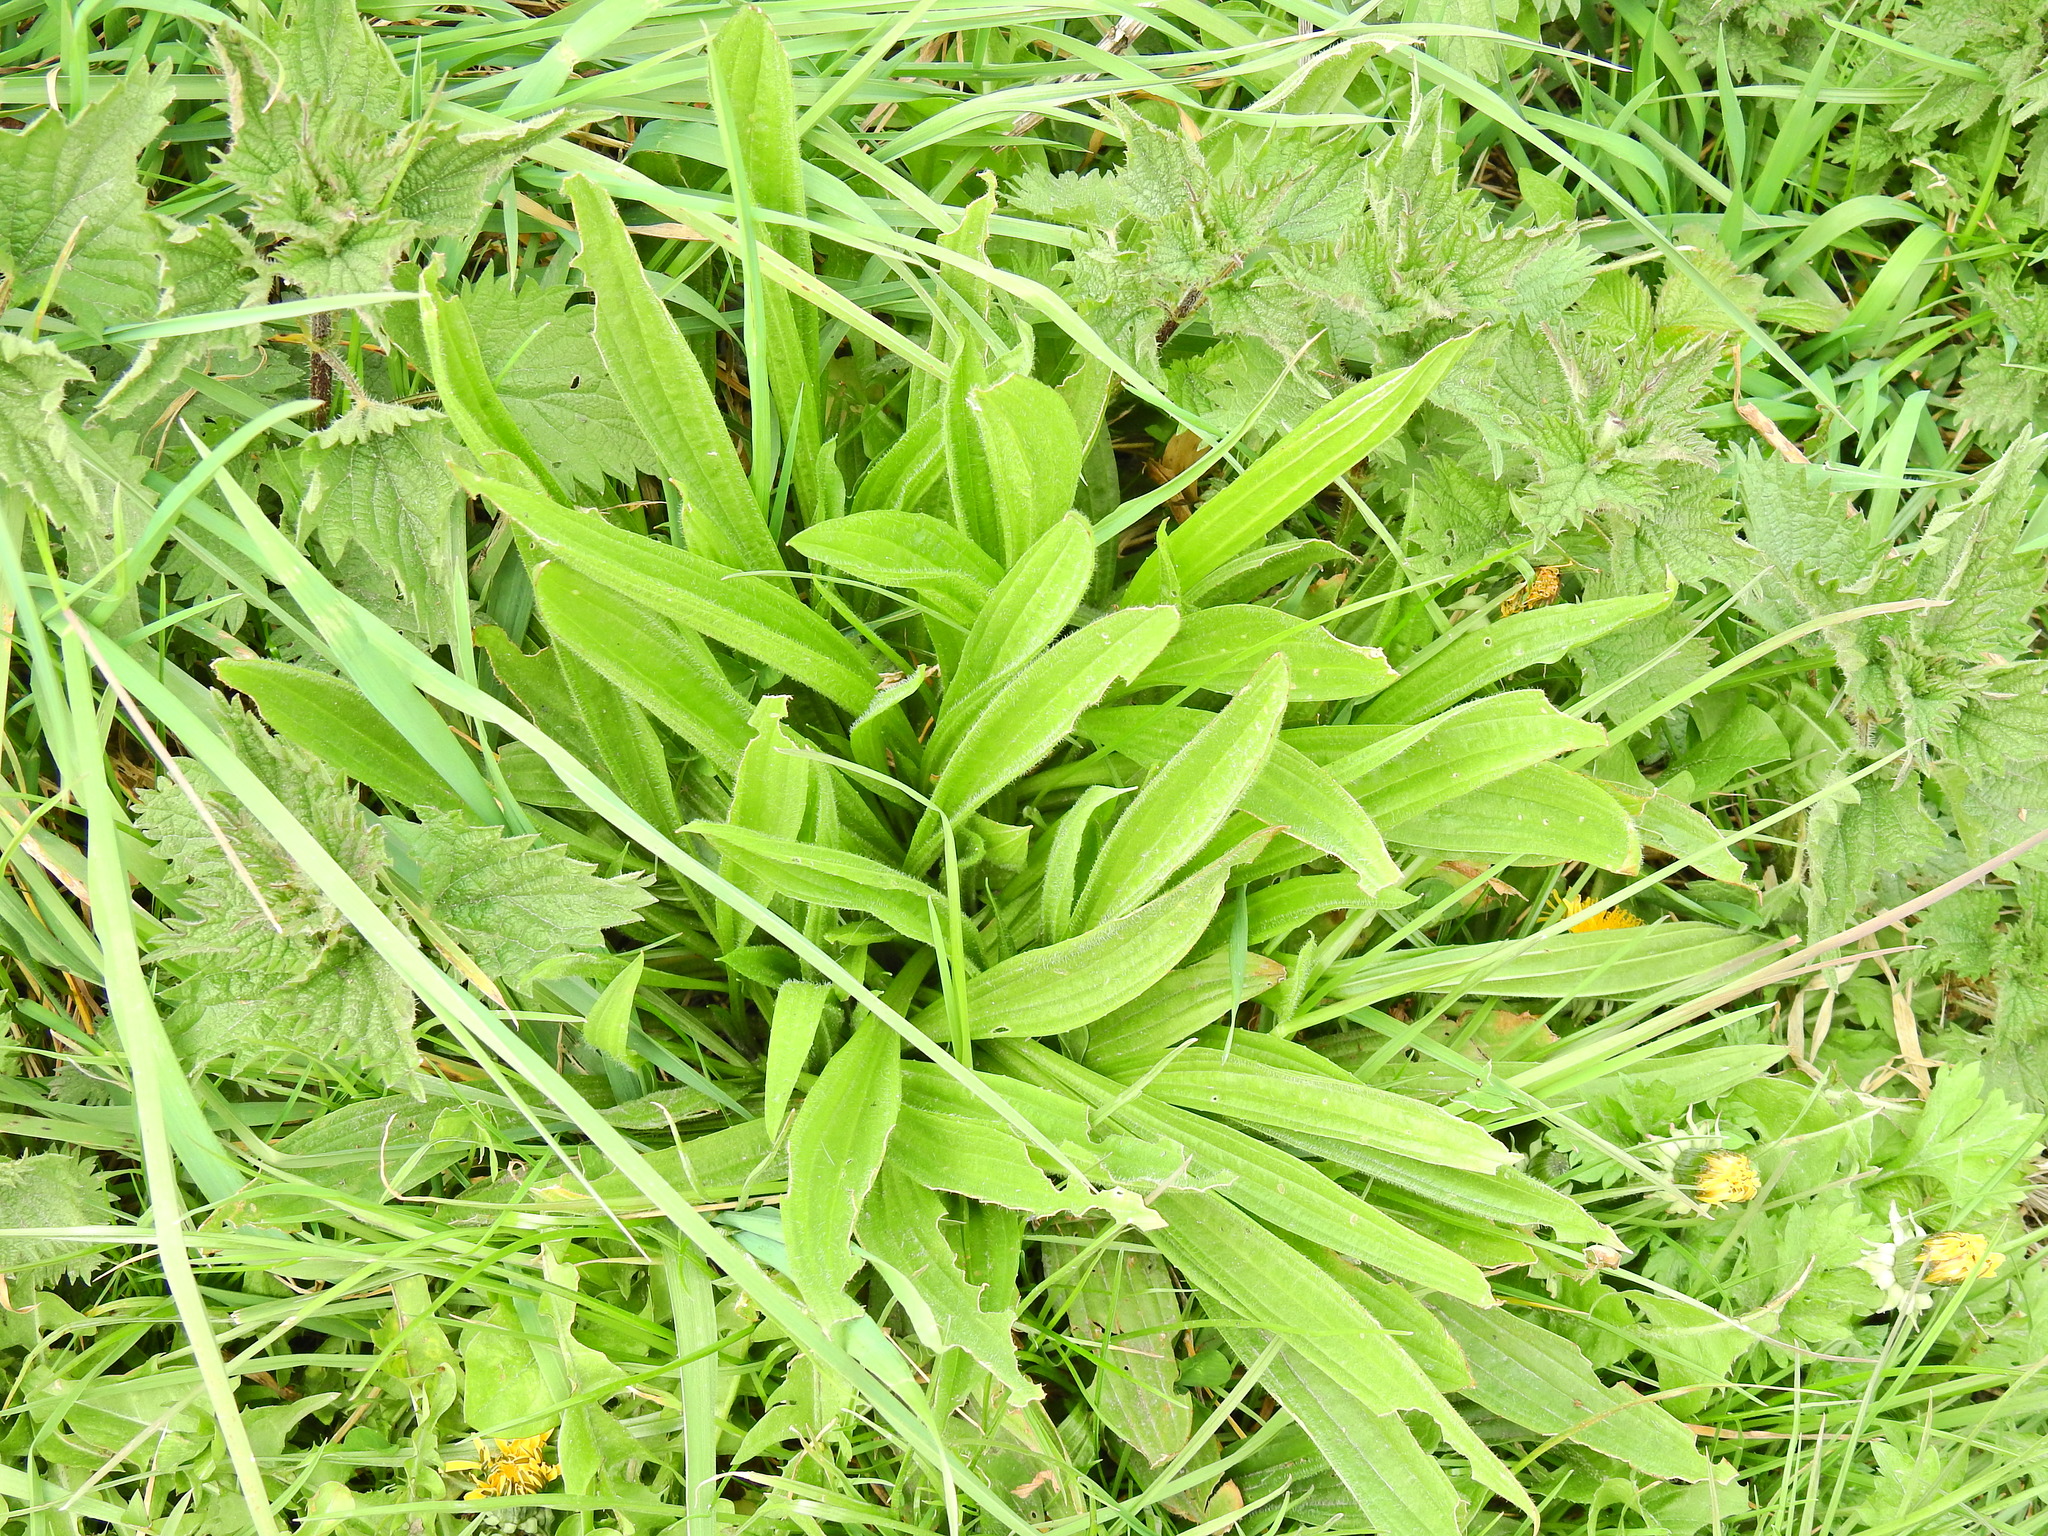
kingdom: Plantae
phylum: Tracheophyta
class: Magnoliopsida
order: Lamiales
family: Plantaginaceae
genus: Plantago
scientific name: Plantago lanceolata
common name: Ribwort plantain
